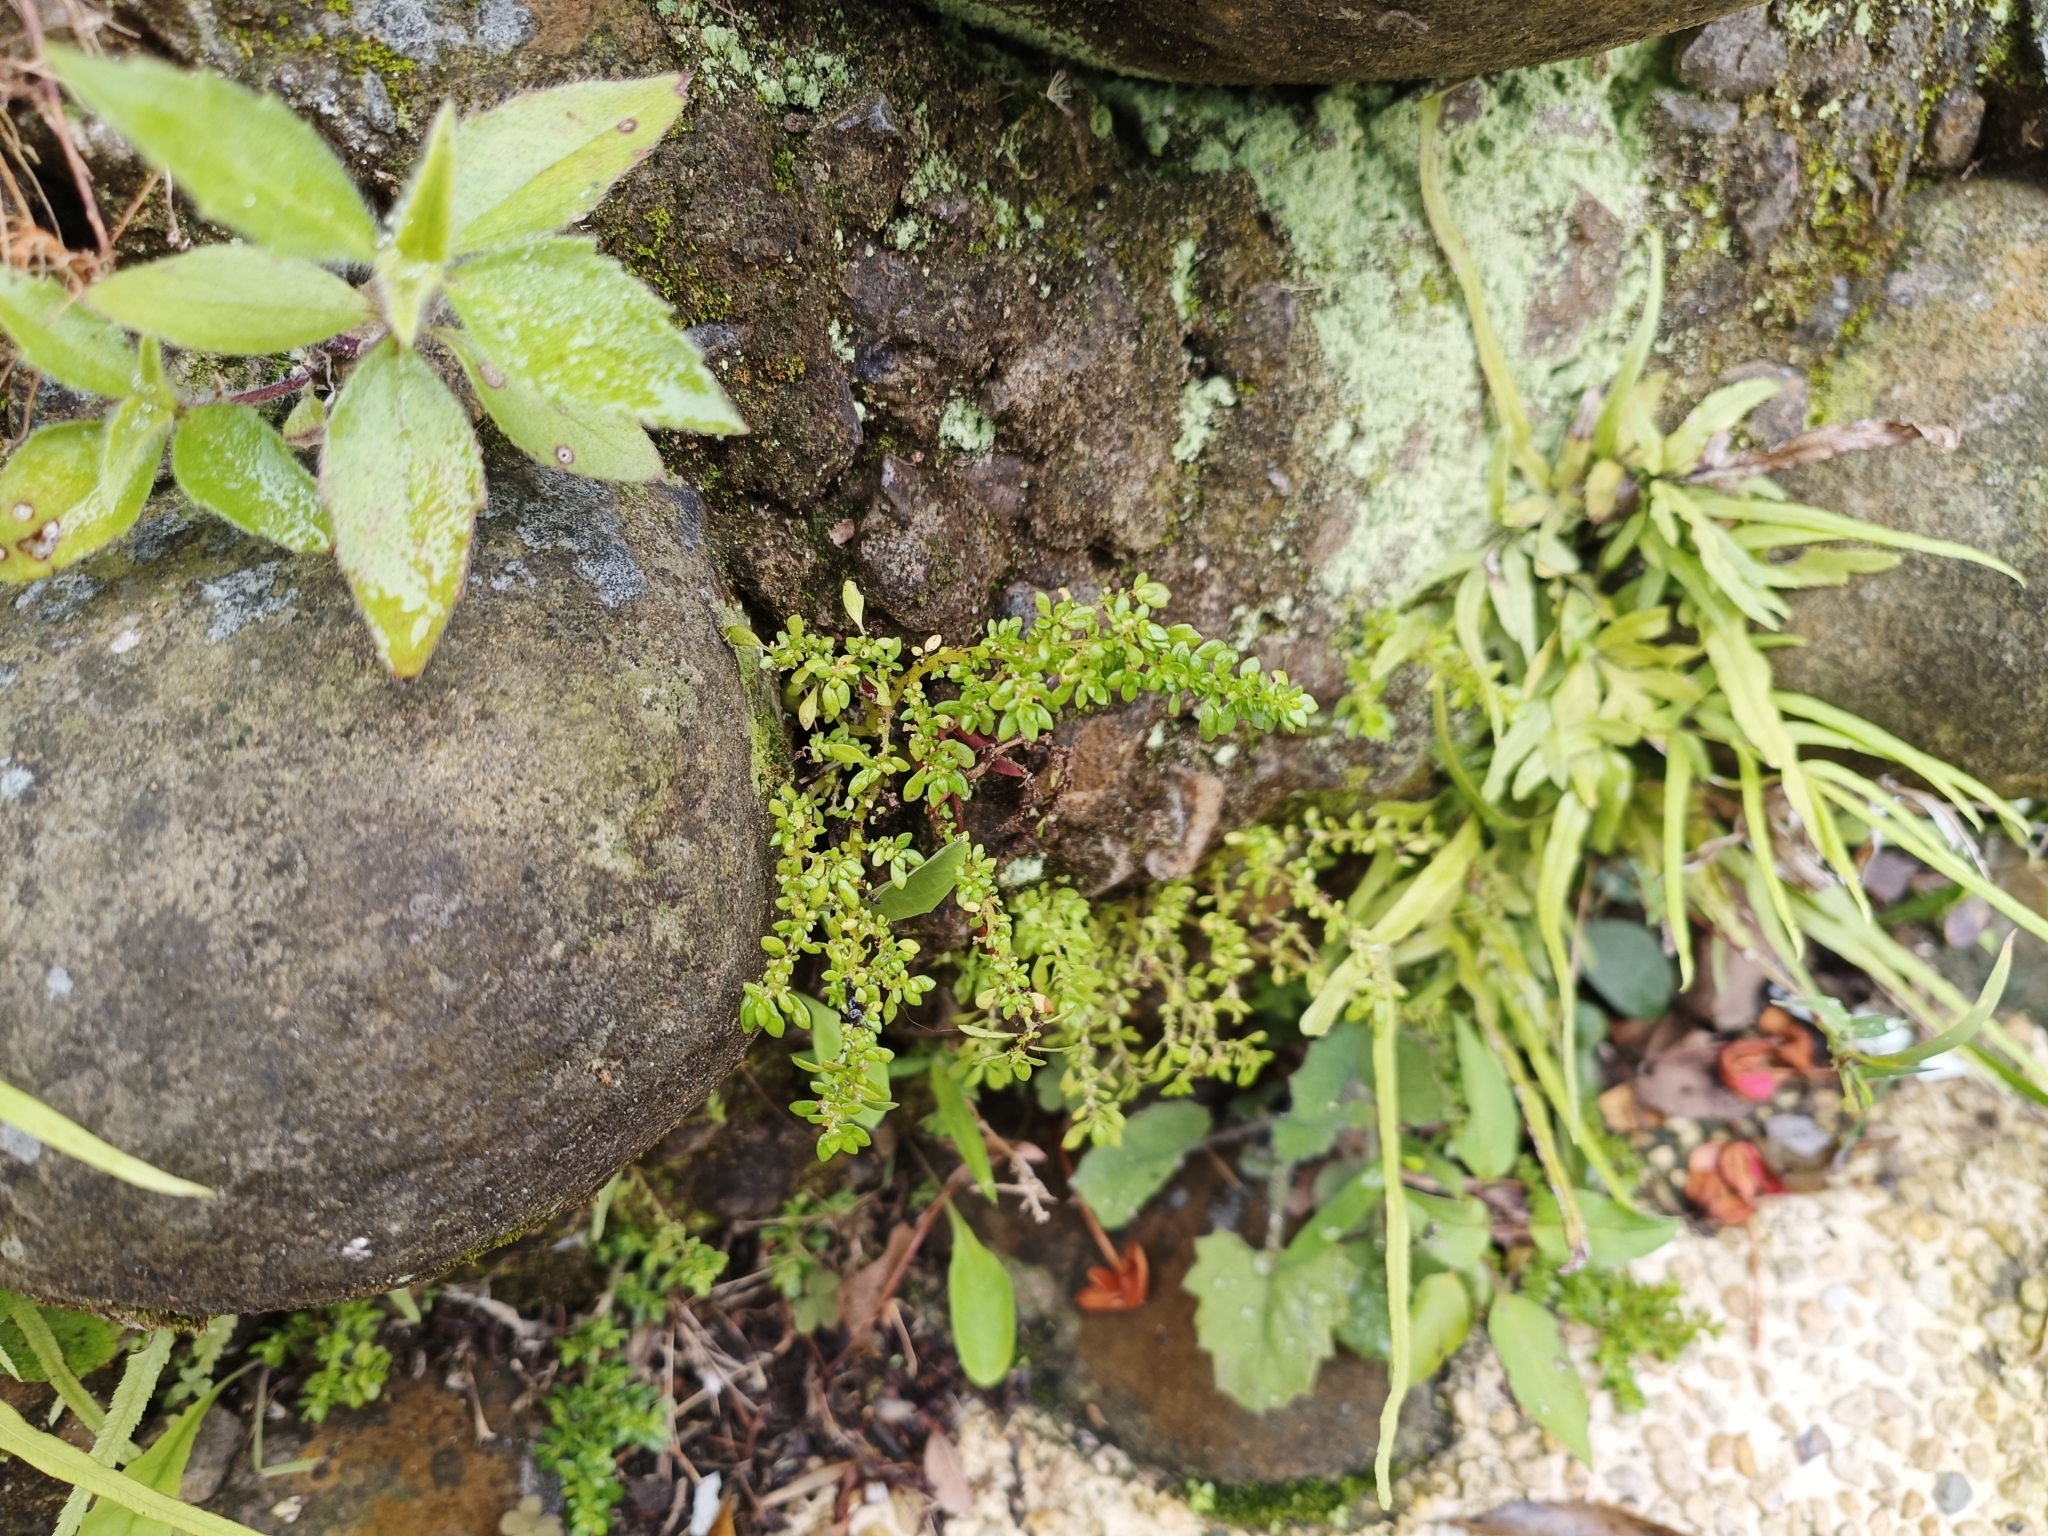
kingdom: Plantae
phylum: Tracheophyta
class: Magnoliopsida
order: Rosales
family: Urticaceae
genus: Pilea
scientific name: Pilea microphylla
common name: Artillery-plant
